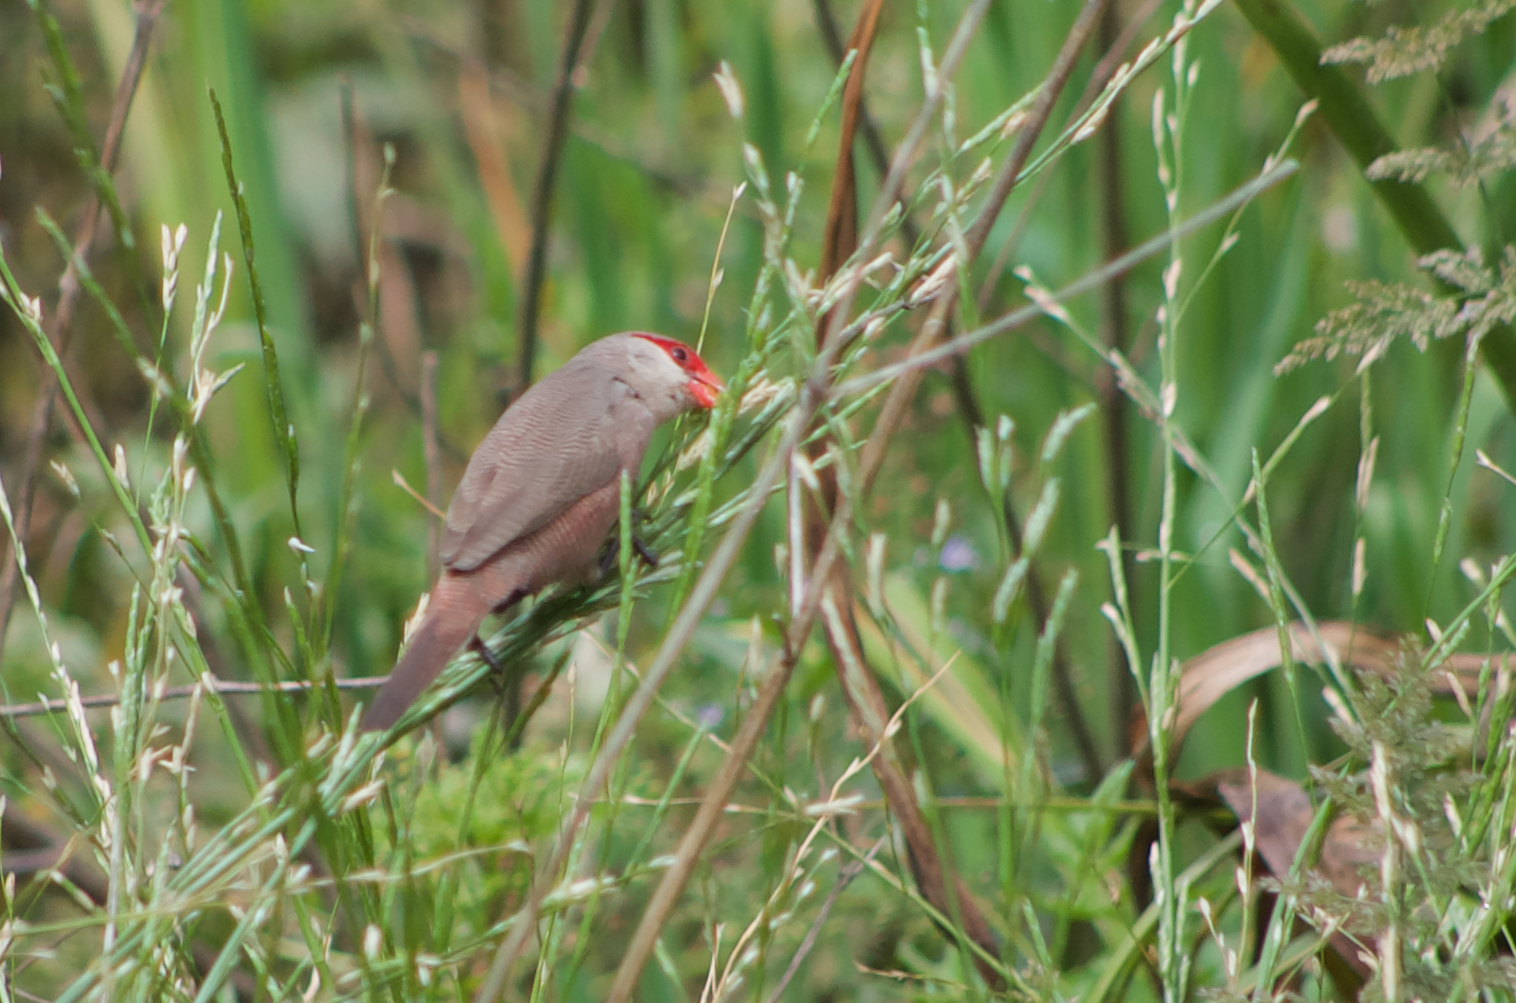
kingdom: Animalia
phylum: Chordata
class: Aves
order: Passeriformes
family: Estrildidae
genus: Estrilda
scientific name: Estrilda astrild
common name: Common waxbill
